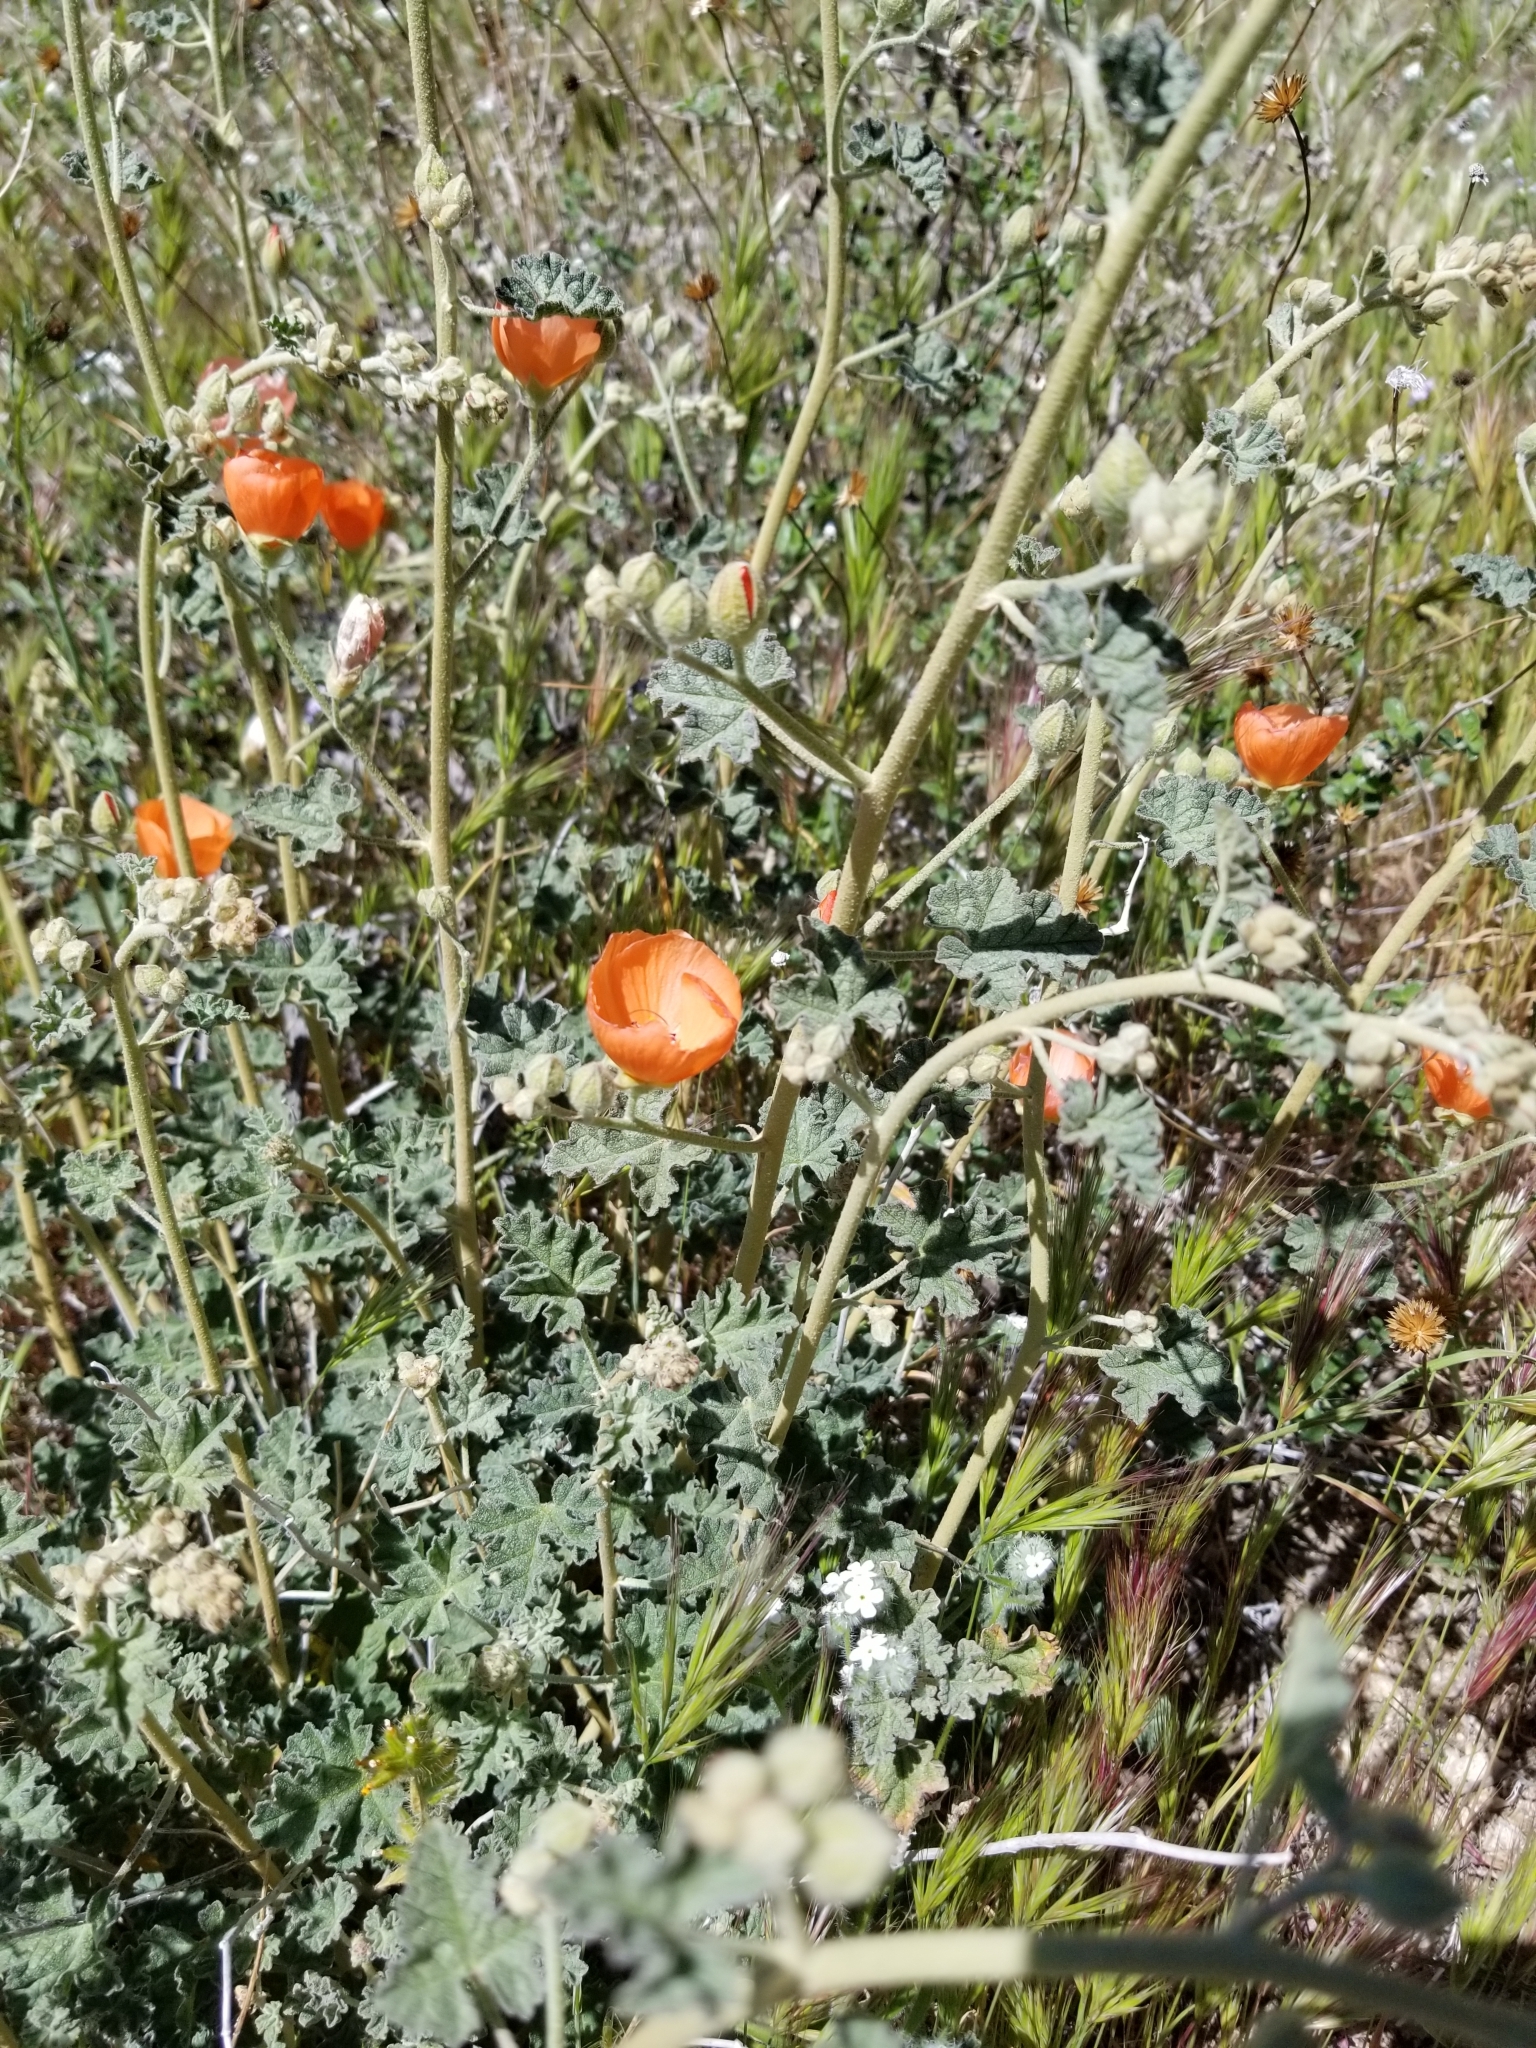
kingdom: Plantae
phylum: Tracheophyta
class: Magnoliopsida
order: Malvales
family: Malvaceae
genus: Sphaeralcea
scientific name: Sphaeralcea ambigua
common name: Apricot globe-mallow
